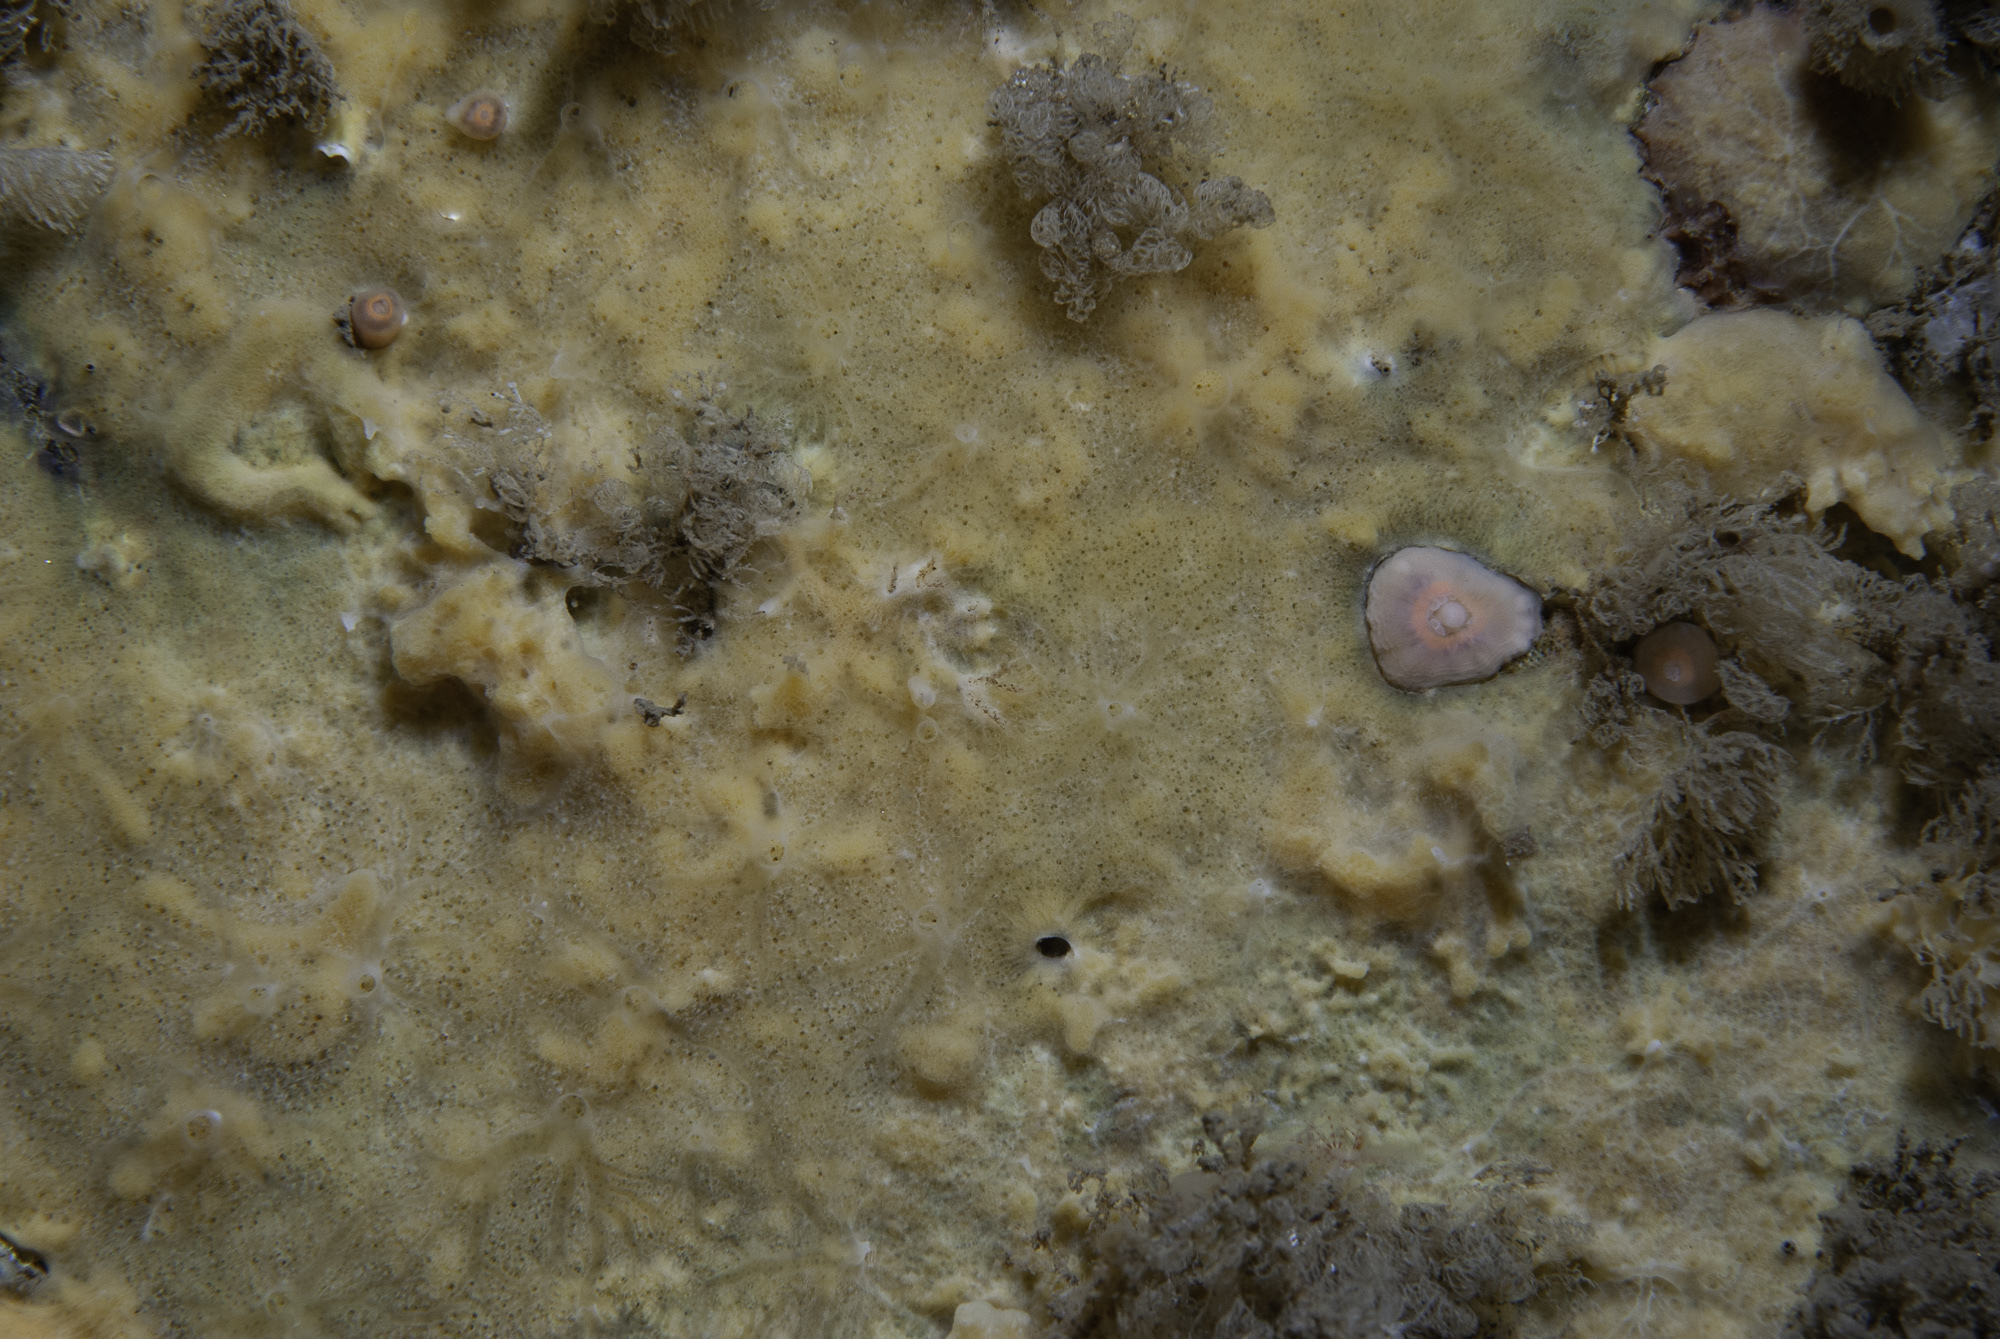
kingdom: Animalia
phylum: Porifera
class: Demospongiae
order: Poecilosclerida
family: Acarnidae
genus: Iophon
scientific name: Iophon hyndmani
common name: Hyndman's horny sponge
